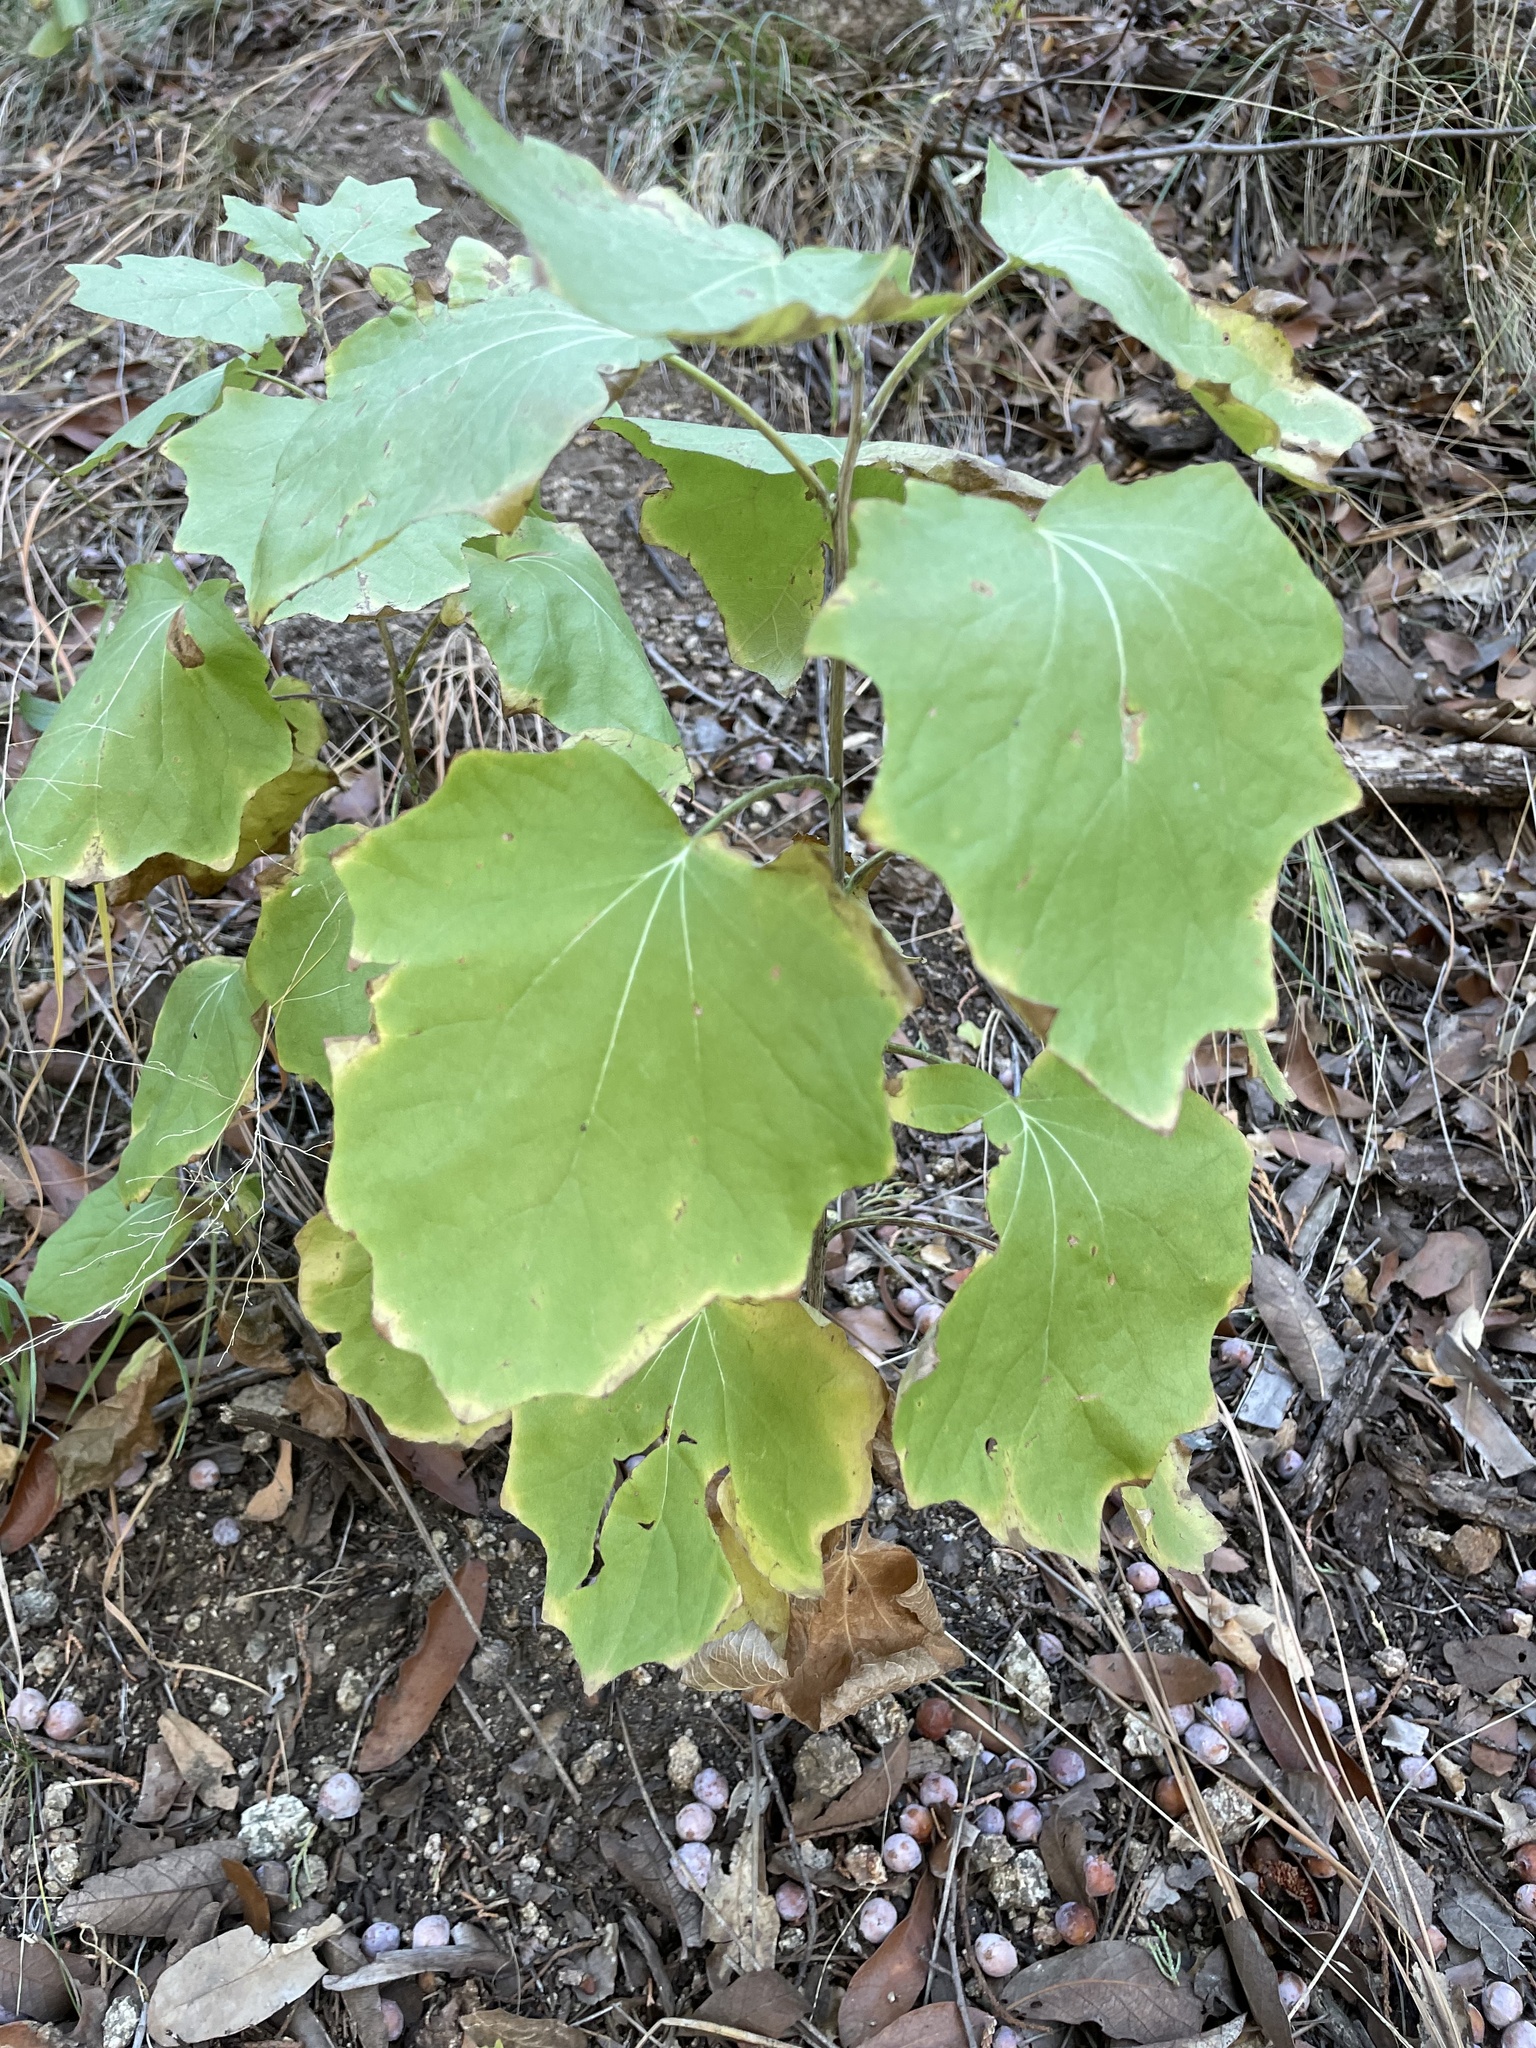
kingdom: Plantae
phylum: Tracheophyta
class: Magnoliopsida
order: Asterales
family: Asteraceae
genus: Roldana
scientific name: Roldana hartwegii
